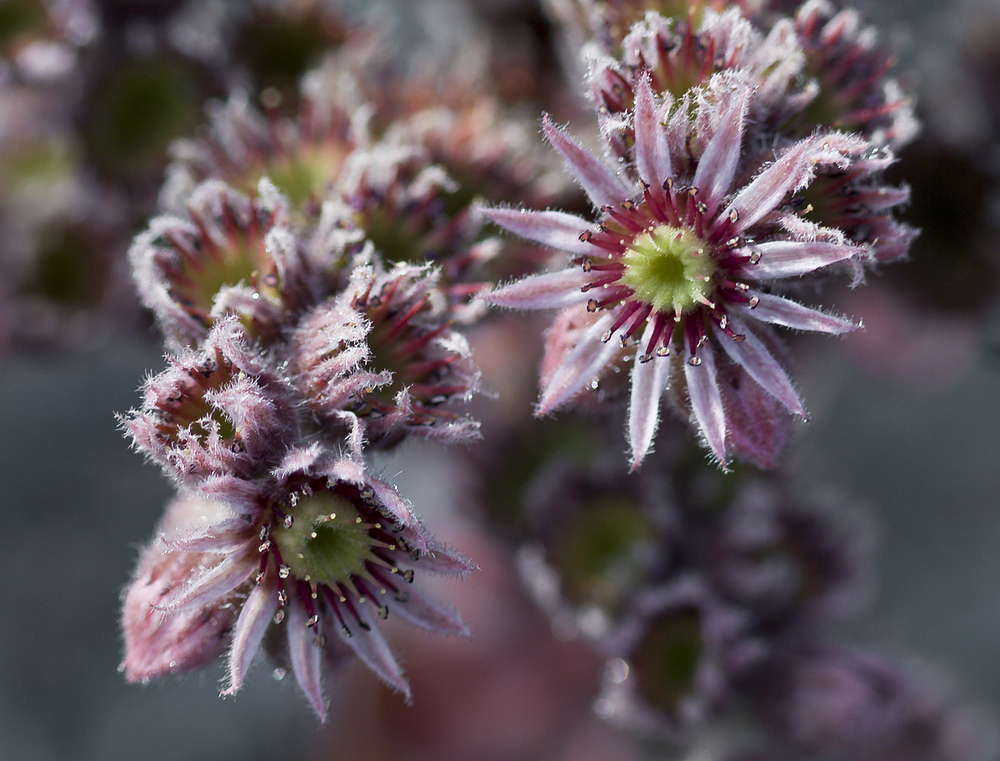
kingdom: Plantae
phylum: Tracheophyta
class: Magnoliopsida
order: Saxifragales
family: Crassulaceae
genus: Sempervivum
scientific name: Sempervivum tectorum
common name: House-leek
